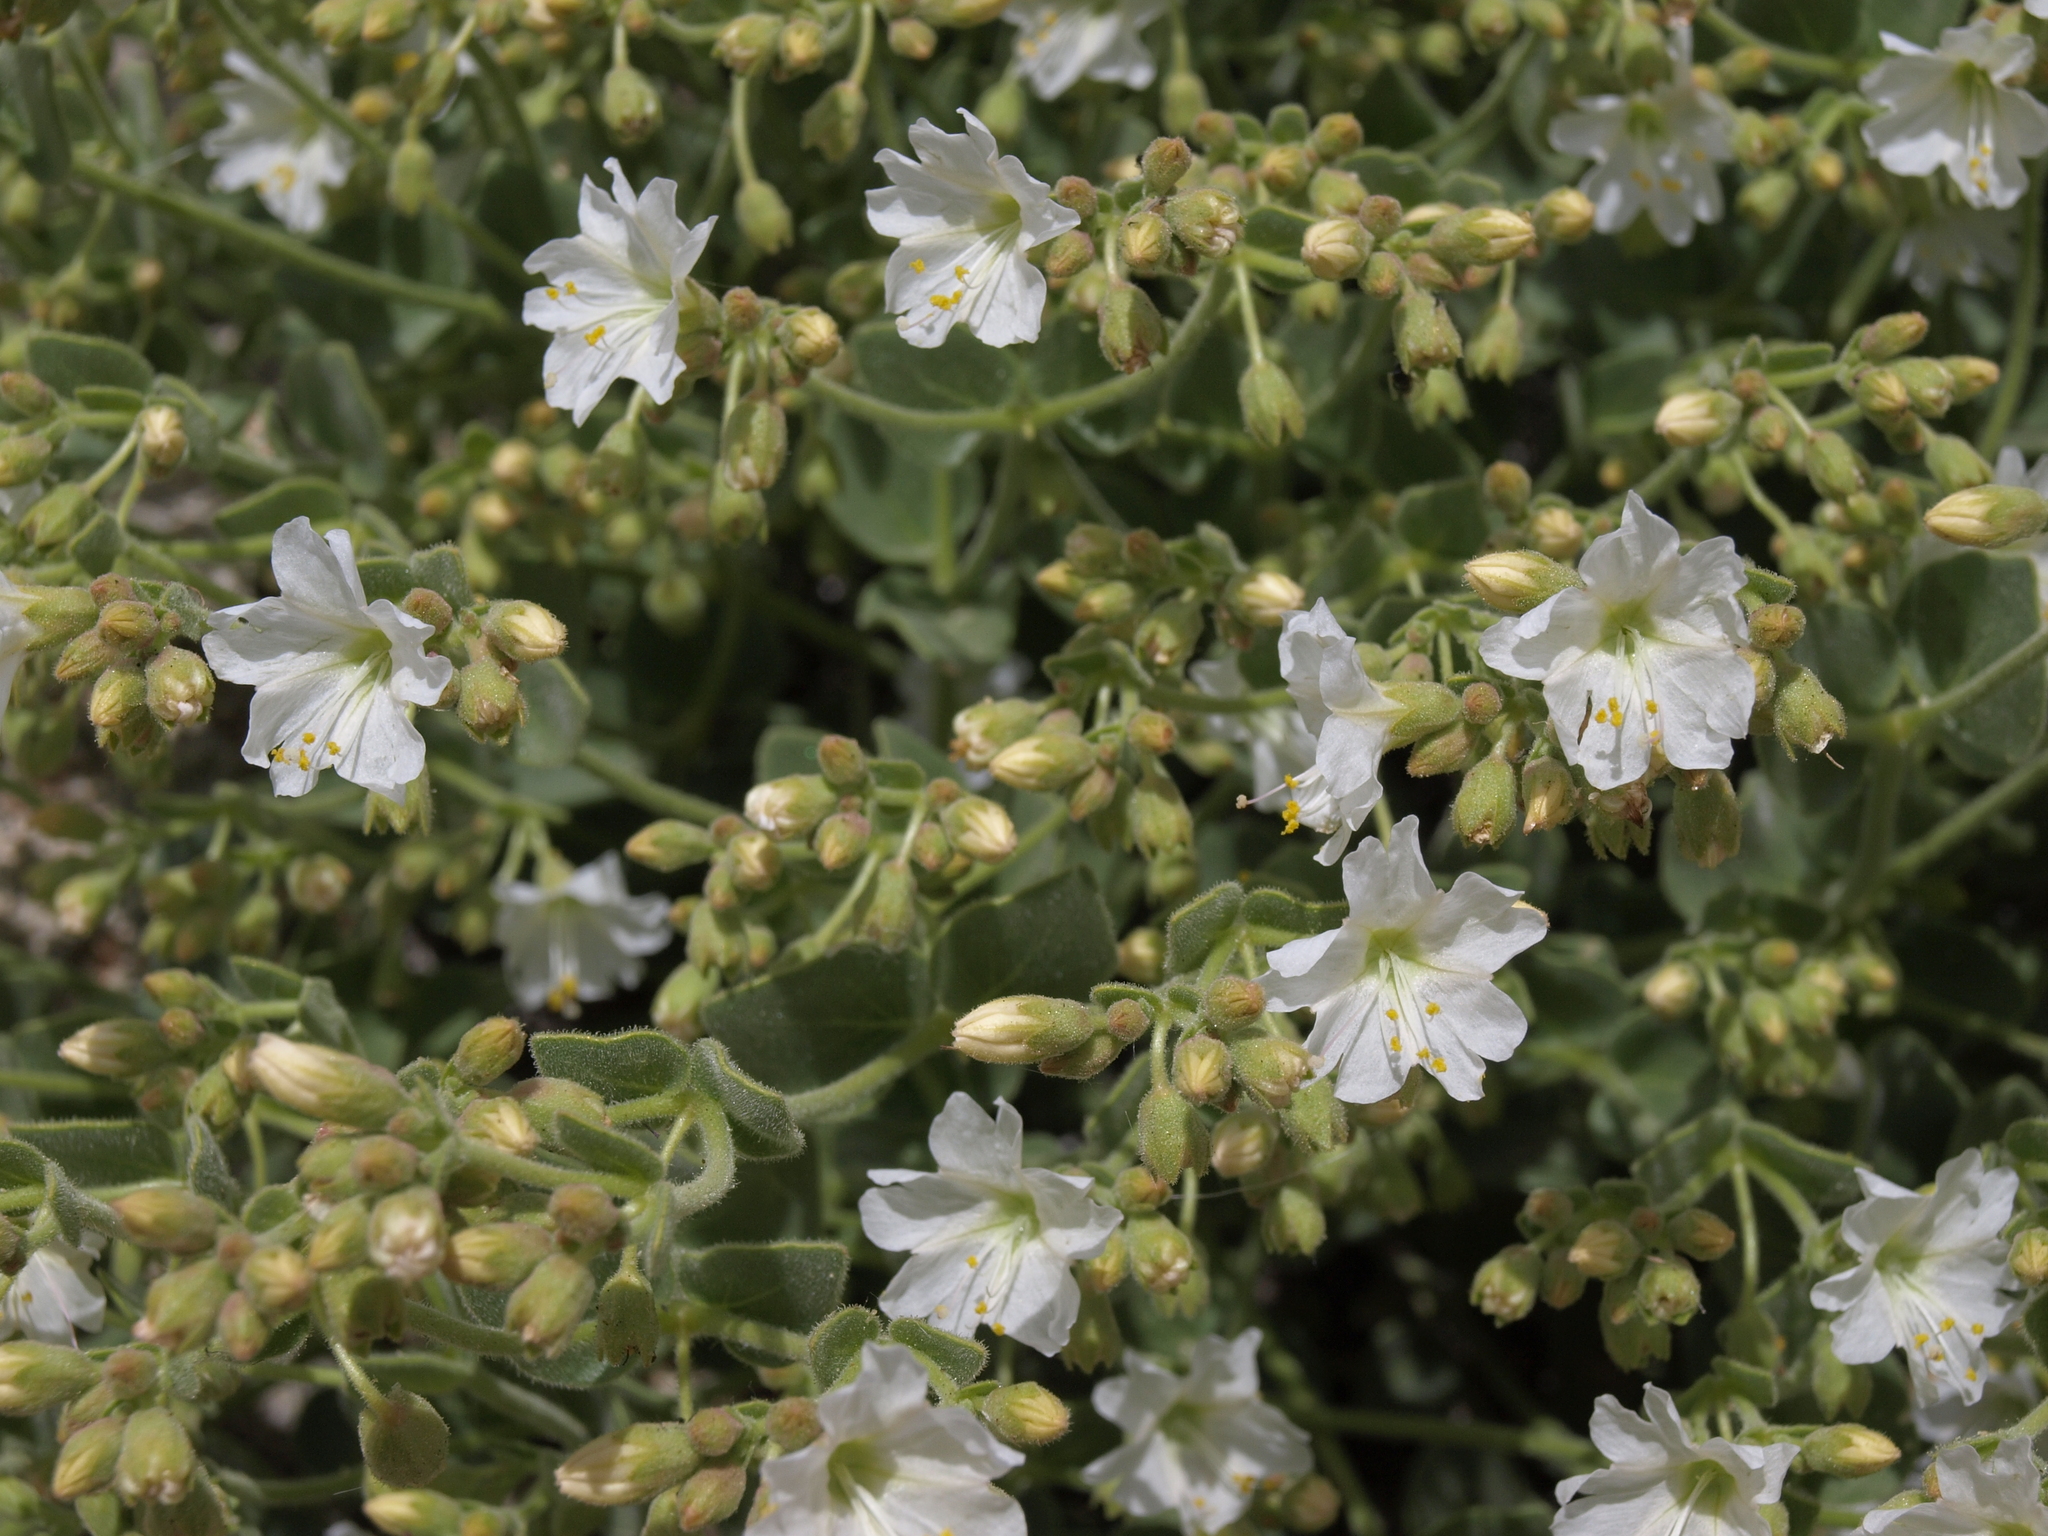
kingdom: Plantae
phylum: Tracheophyta
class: Magnoliopsida
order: Caryophyllales
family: Nyctaginaceae
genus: Mirabilis
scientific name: Mirabilis laevis
